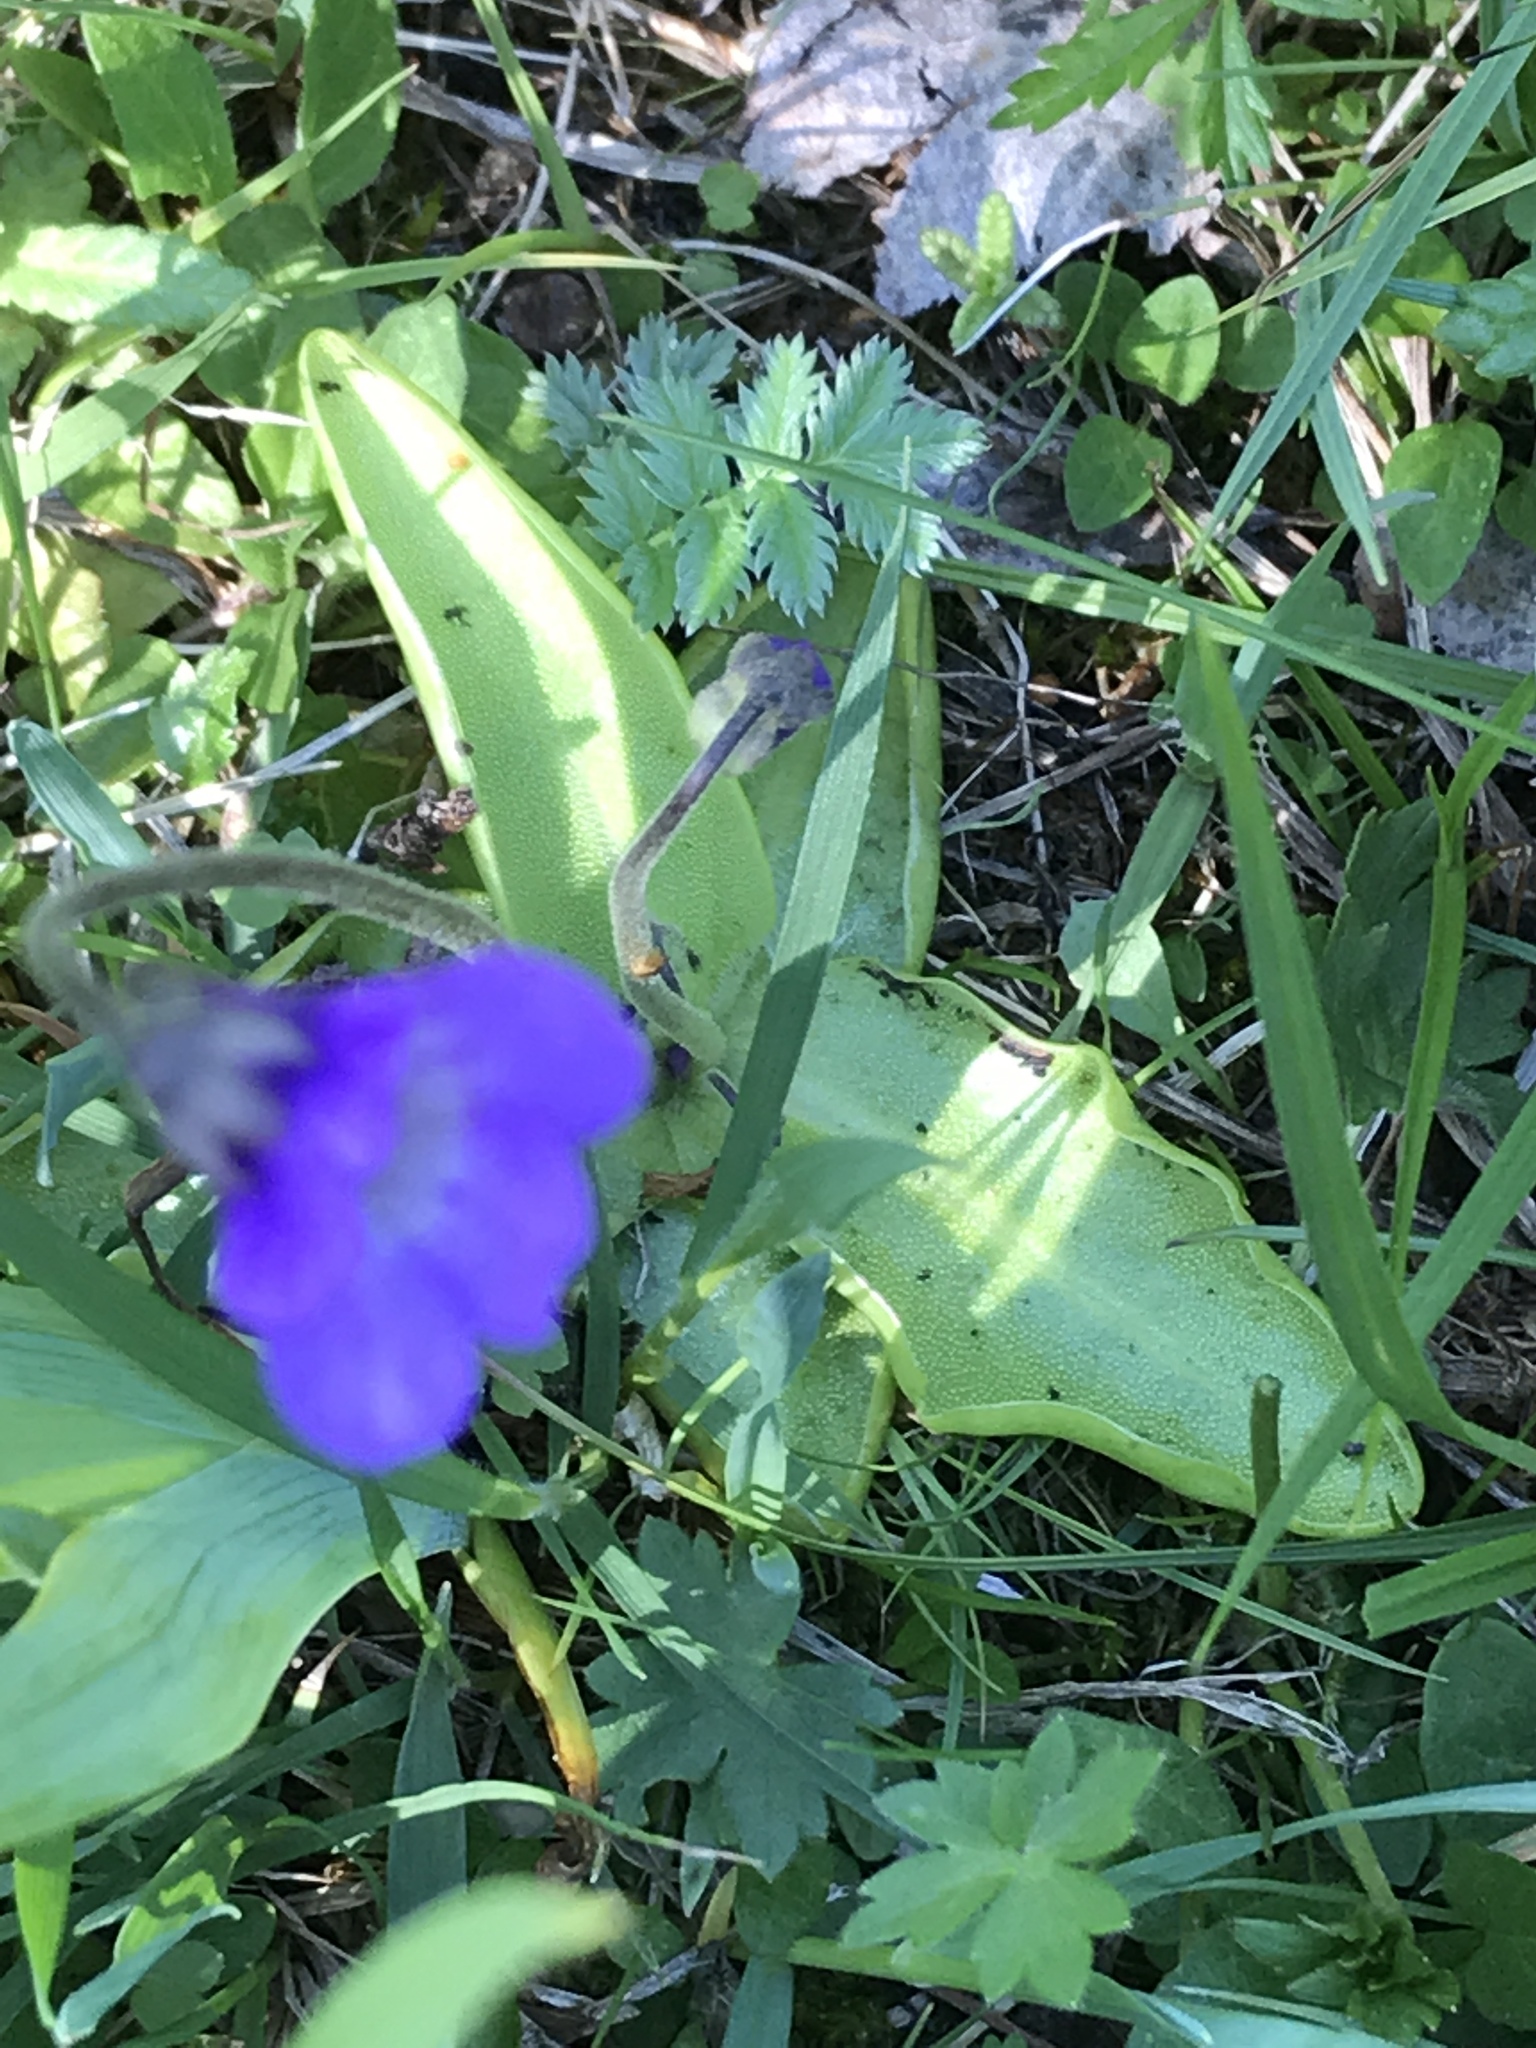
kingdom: Plantae
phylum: Tracheophyta
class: Magnoliopsida
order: Lamiales
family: Lentibulariaceae
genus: Pinguicula
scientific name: Pinguicula vulgaris
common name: Common butterwort
